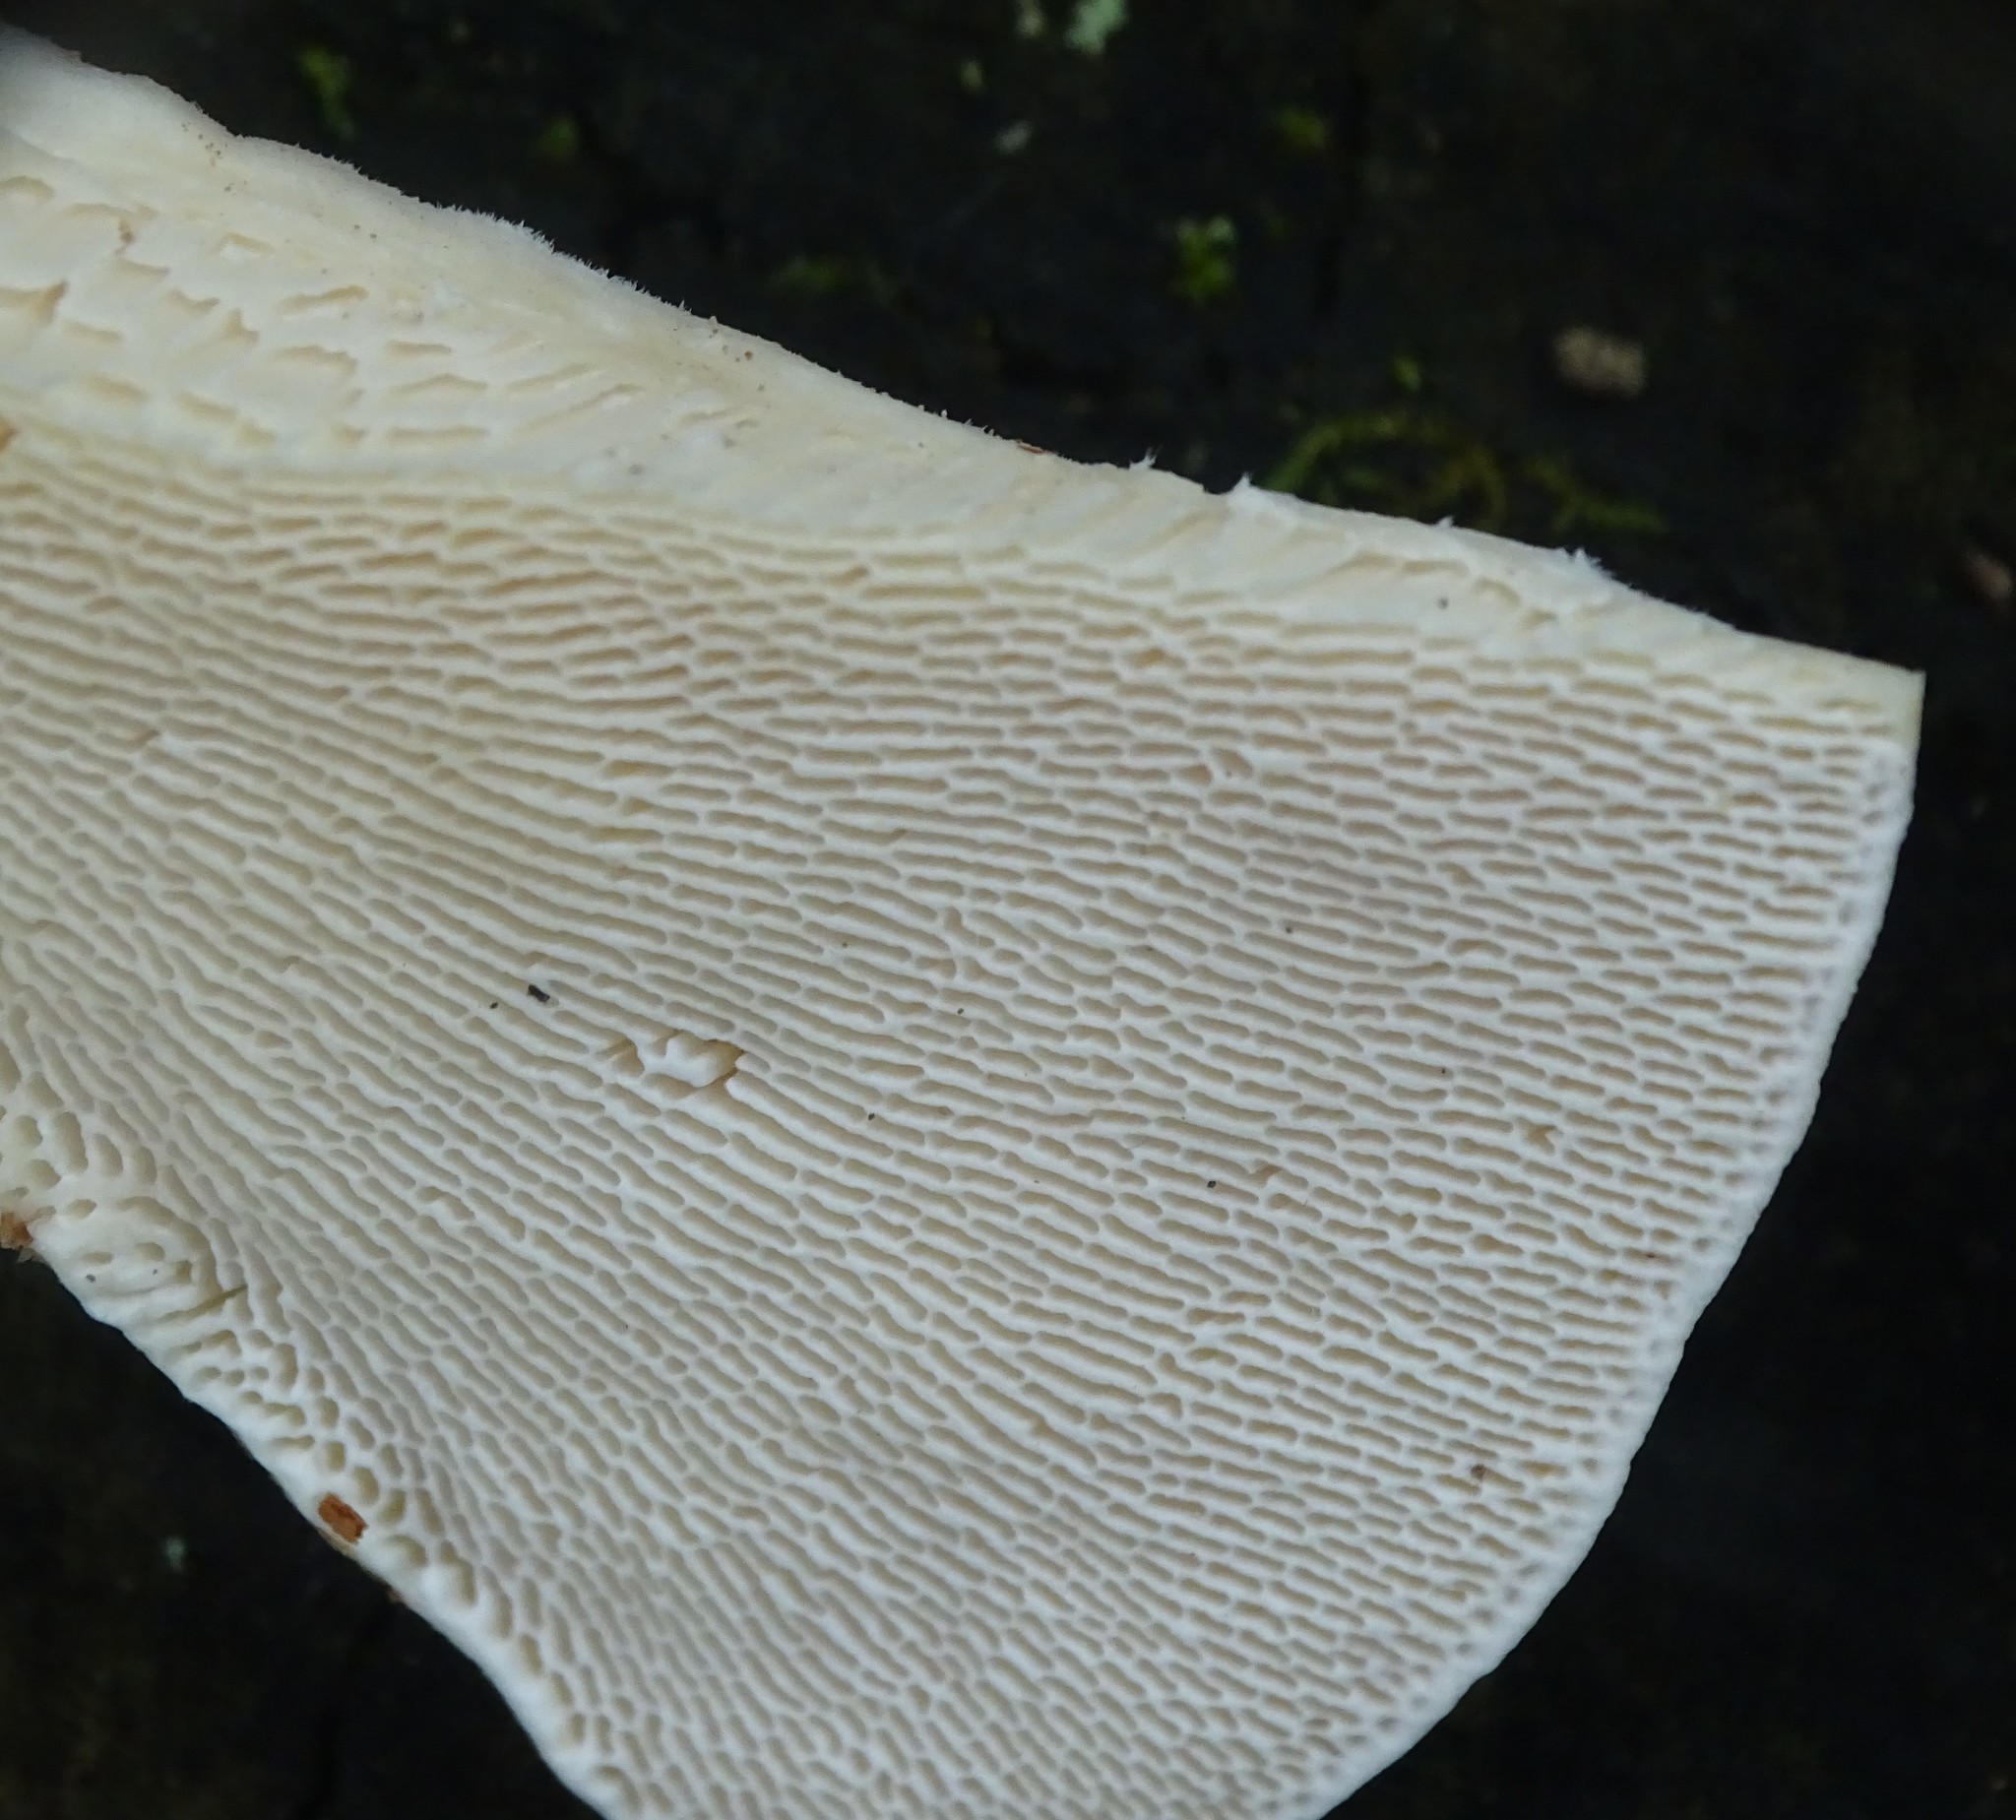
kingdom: Fungi
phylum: Basidiomycota
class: Agaricomycetes
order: Polyporales
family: Polyporaceae
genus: Trametes
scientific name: Trametes gibbosa
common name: Lumpy bracket
